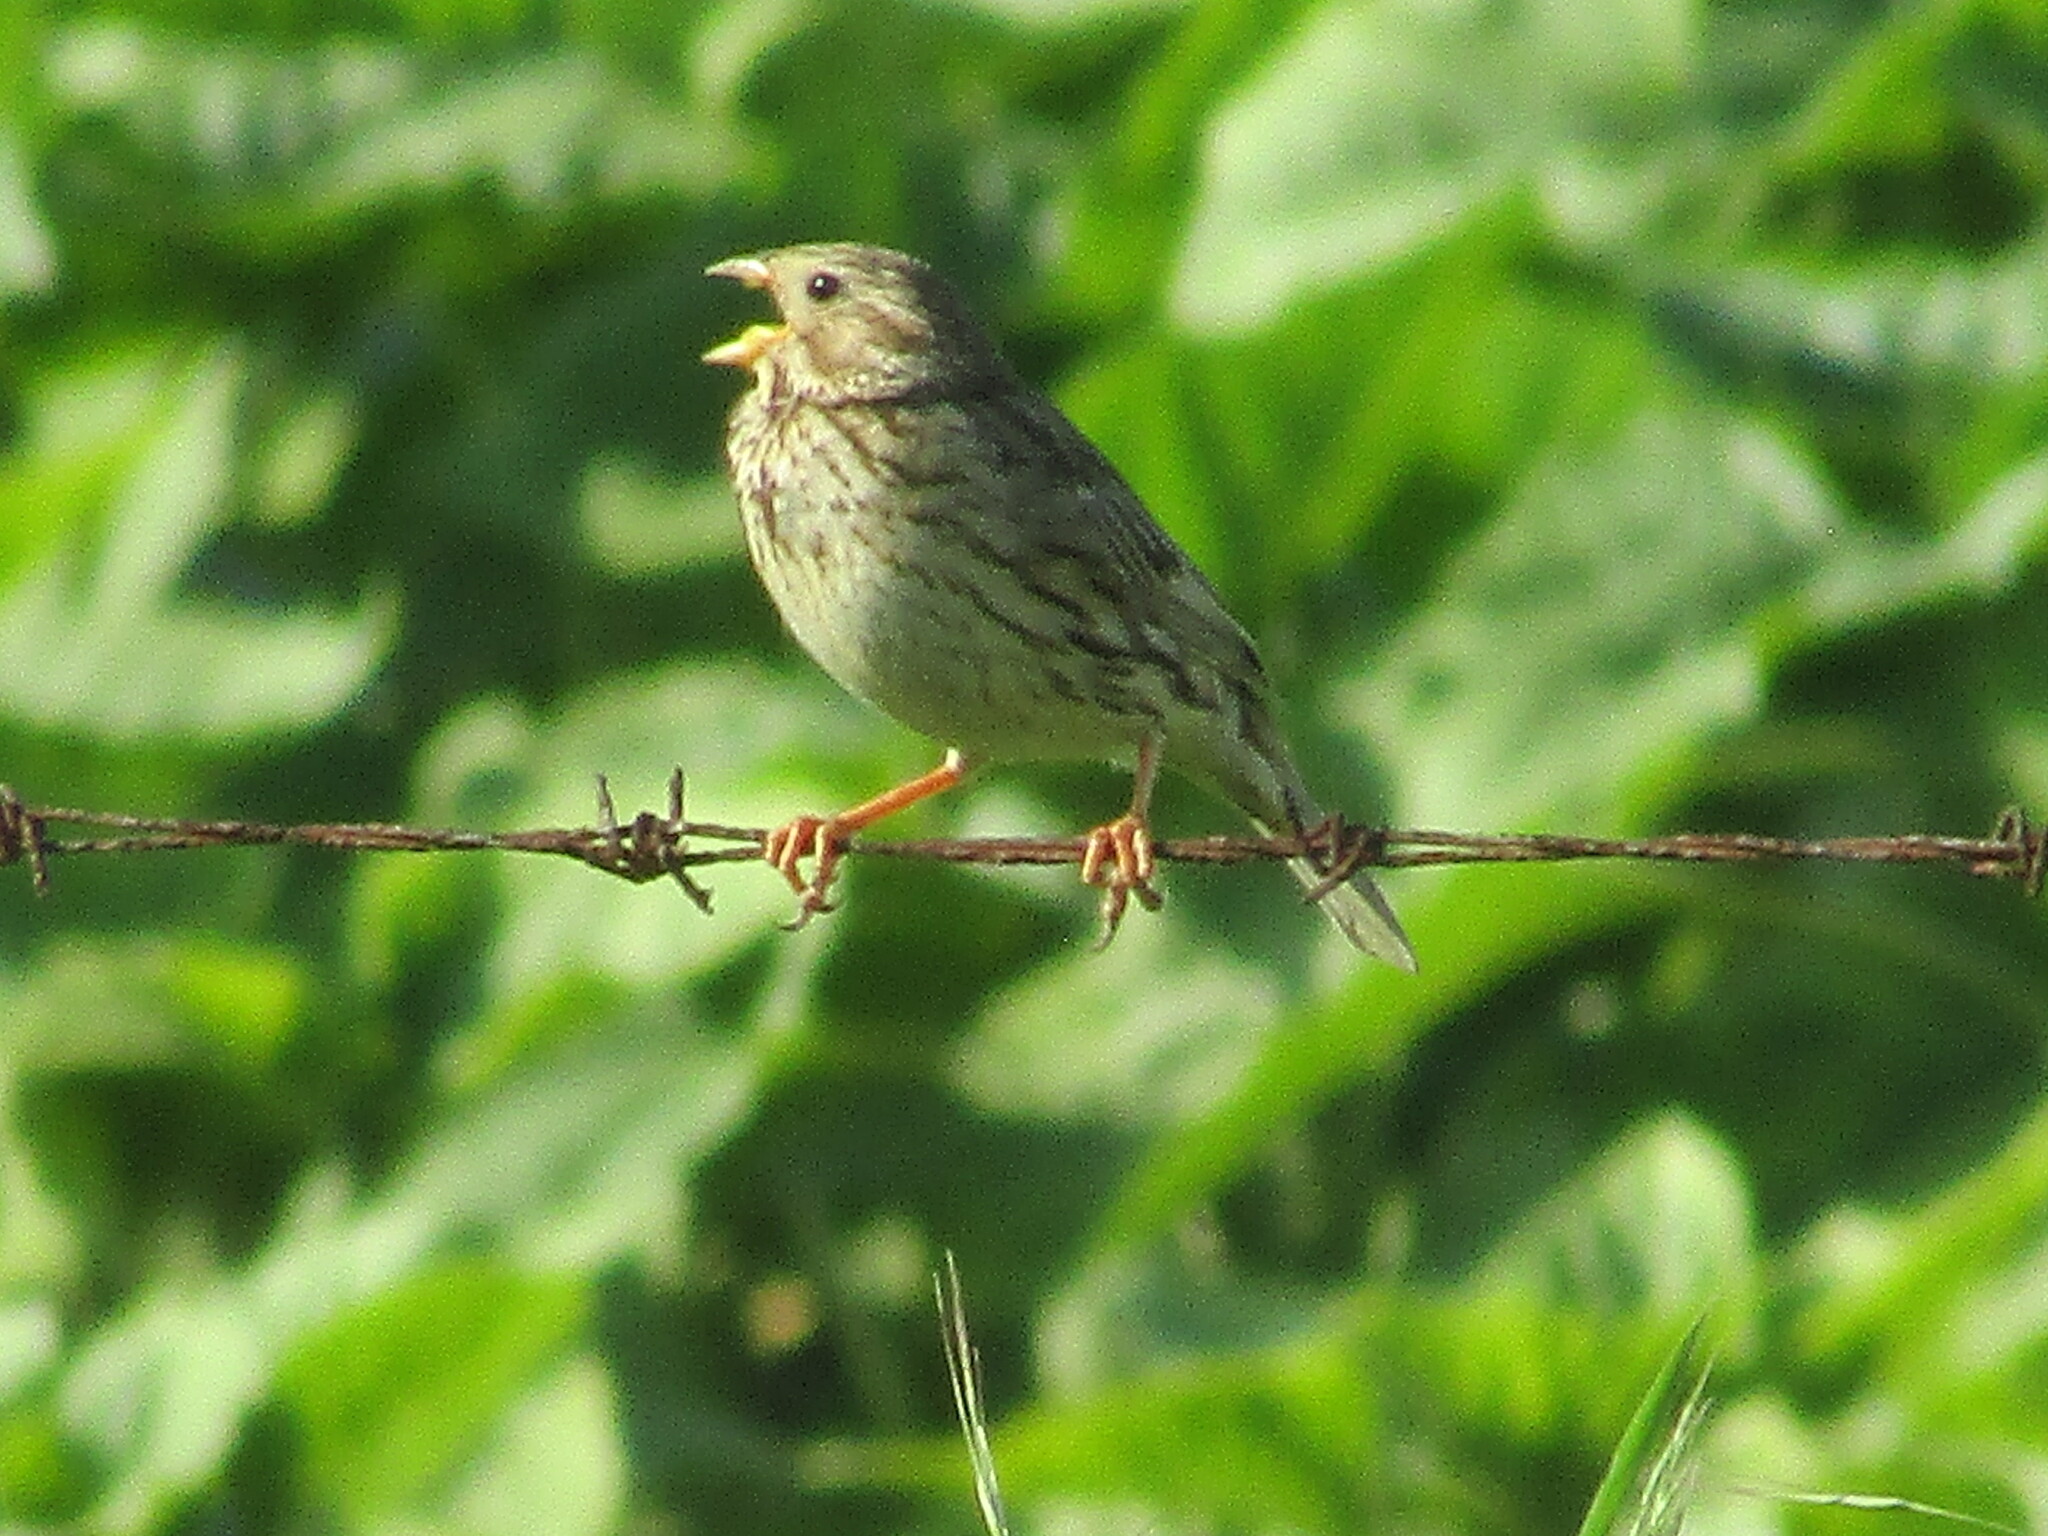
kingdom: Animalia
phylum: Chordata
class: Aves
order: Passeriformes
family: Emberizidae
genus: Emberiza
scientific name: Emberiza calandra
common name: Corn bunting
